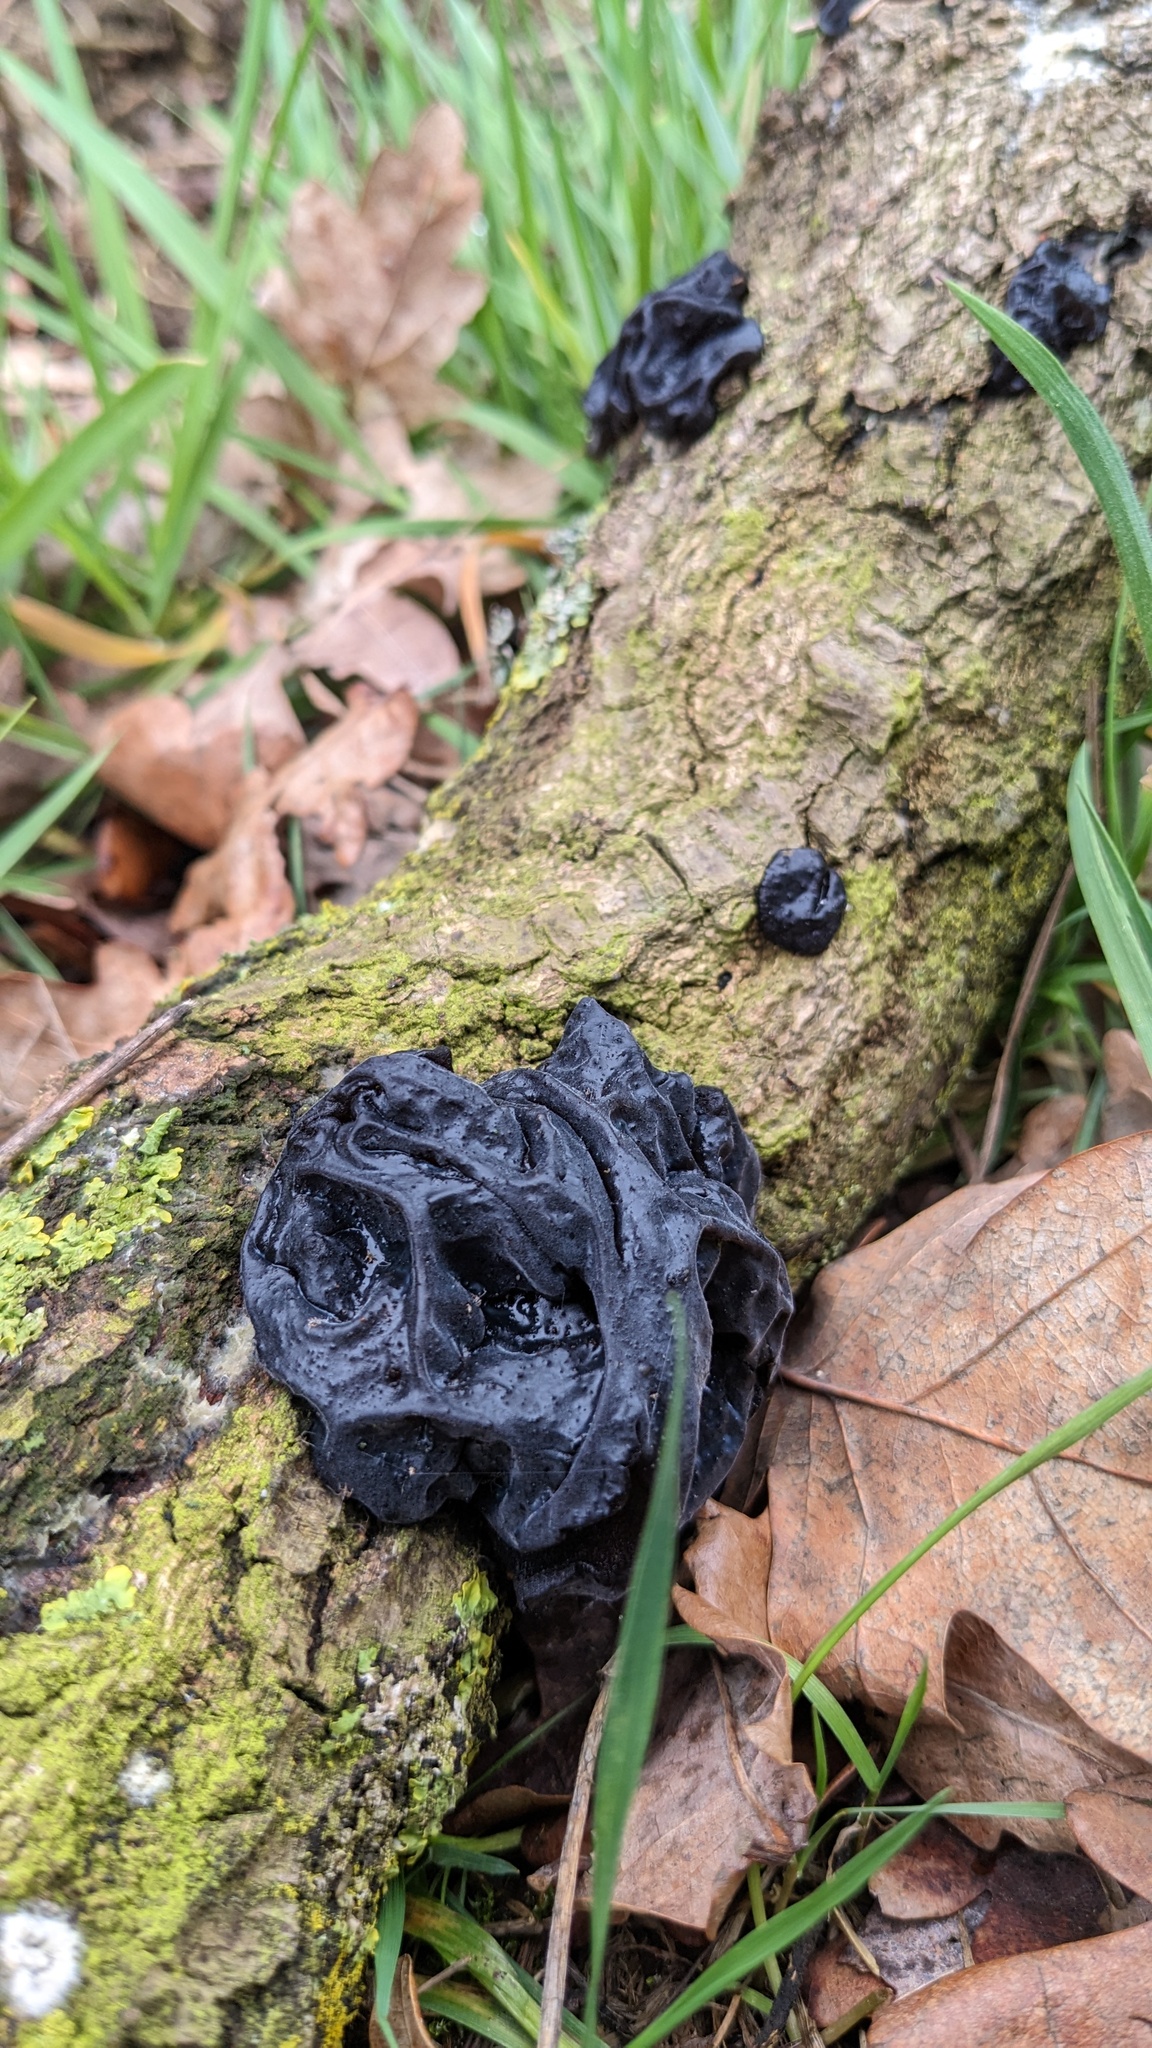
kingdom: Fungi
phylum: Basidiomycota
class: Agaricomycetes
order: Auriculariales
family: Auriculariaceae
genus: Exidia
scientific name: Exidia glandulosa
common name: Witches' butter
